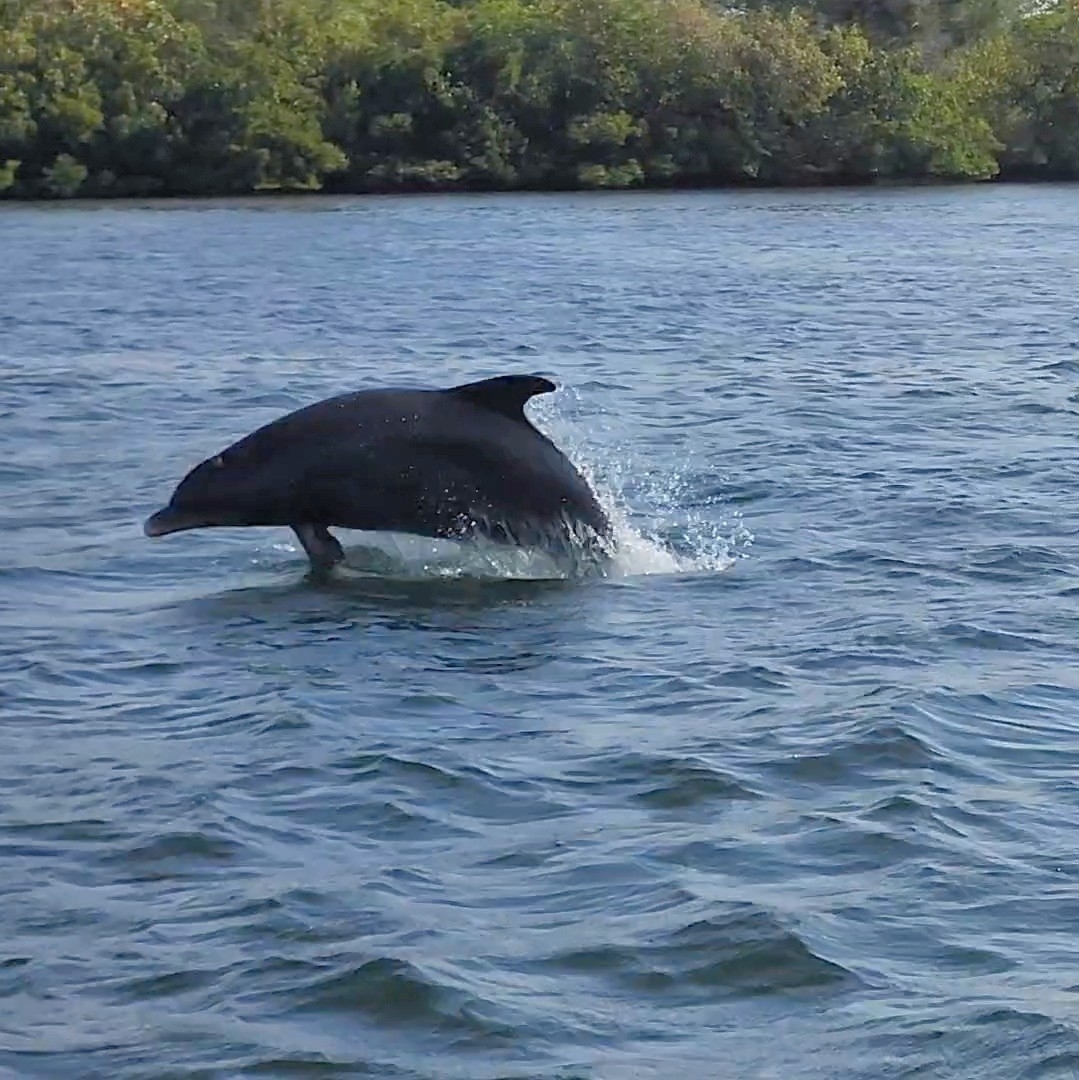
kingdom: Animalia
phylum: Chordata
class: Mammalia
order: Cetacea
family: Delphinidae
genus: Tursiops
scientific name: Tursiops truncatus
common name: Bottlenose dolphin
